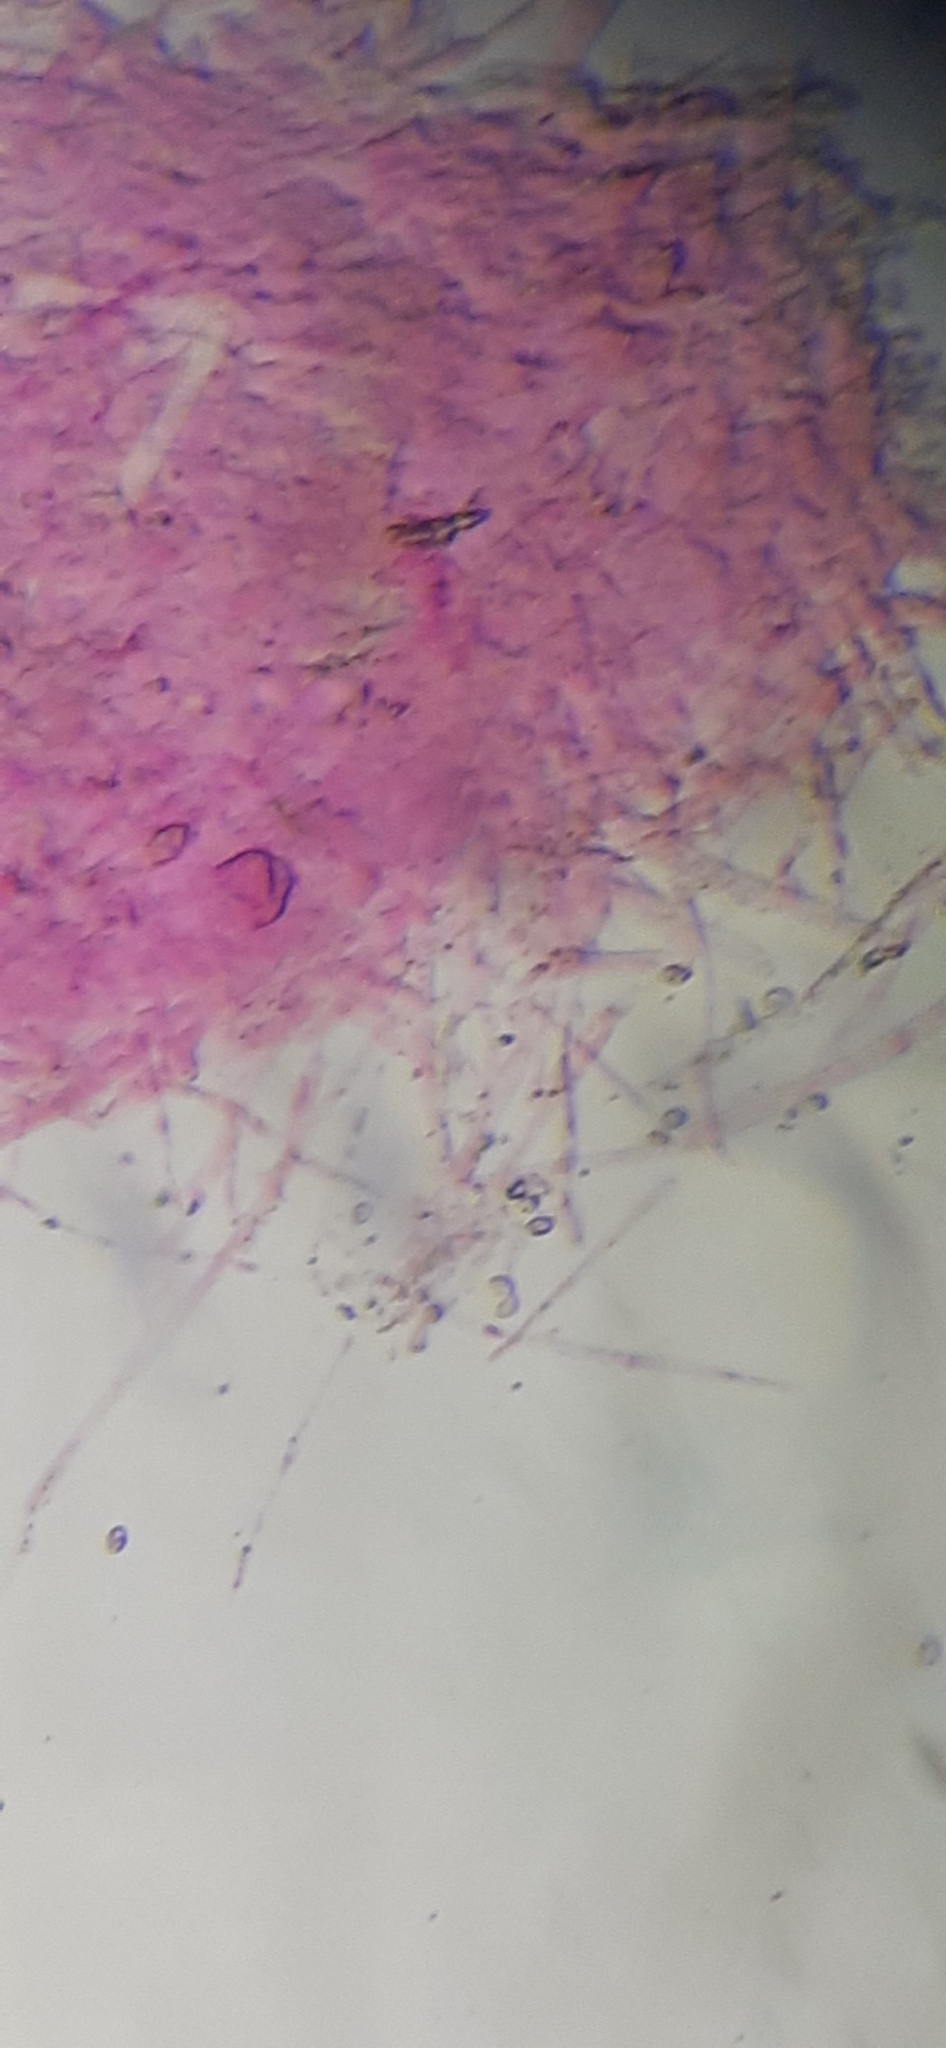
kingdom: Fungi
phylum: Basidiomycota
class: Agaricomycetes
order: Agaricales
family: Hygrophoraceae
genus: Hygrocybe
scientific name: Hygrocybe insipida
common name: Spangle waxcap
